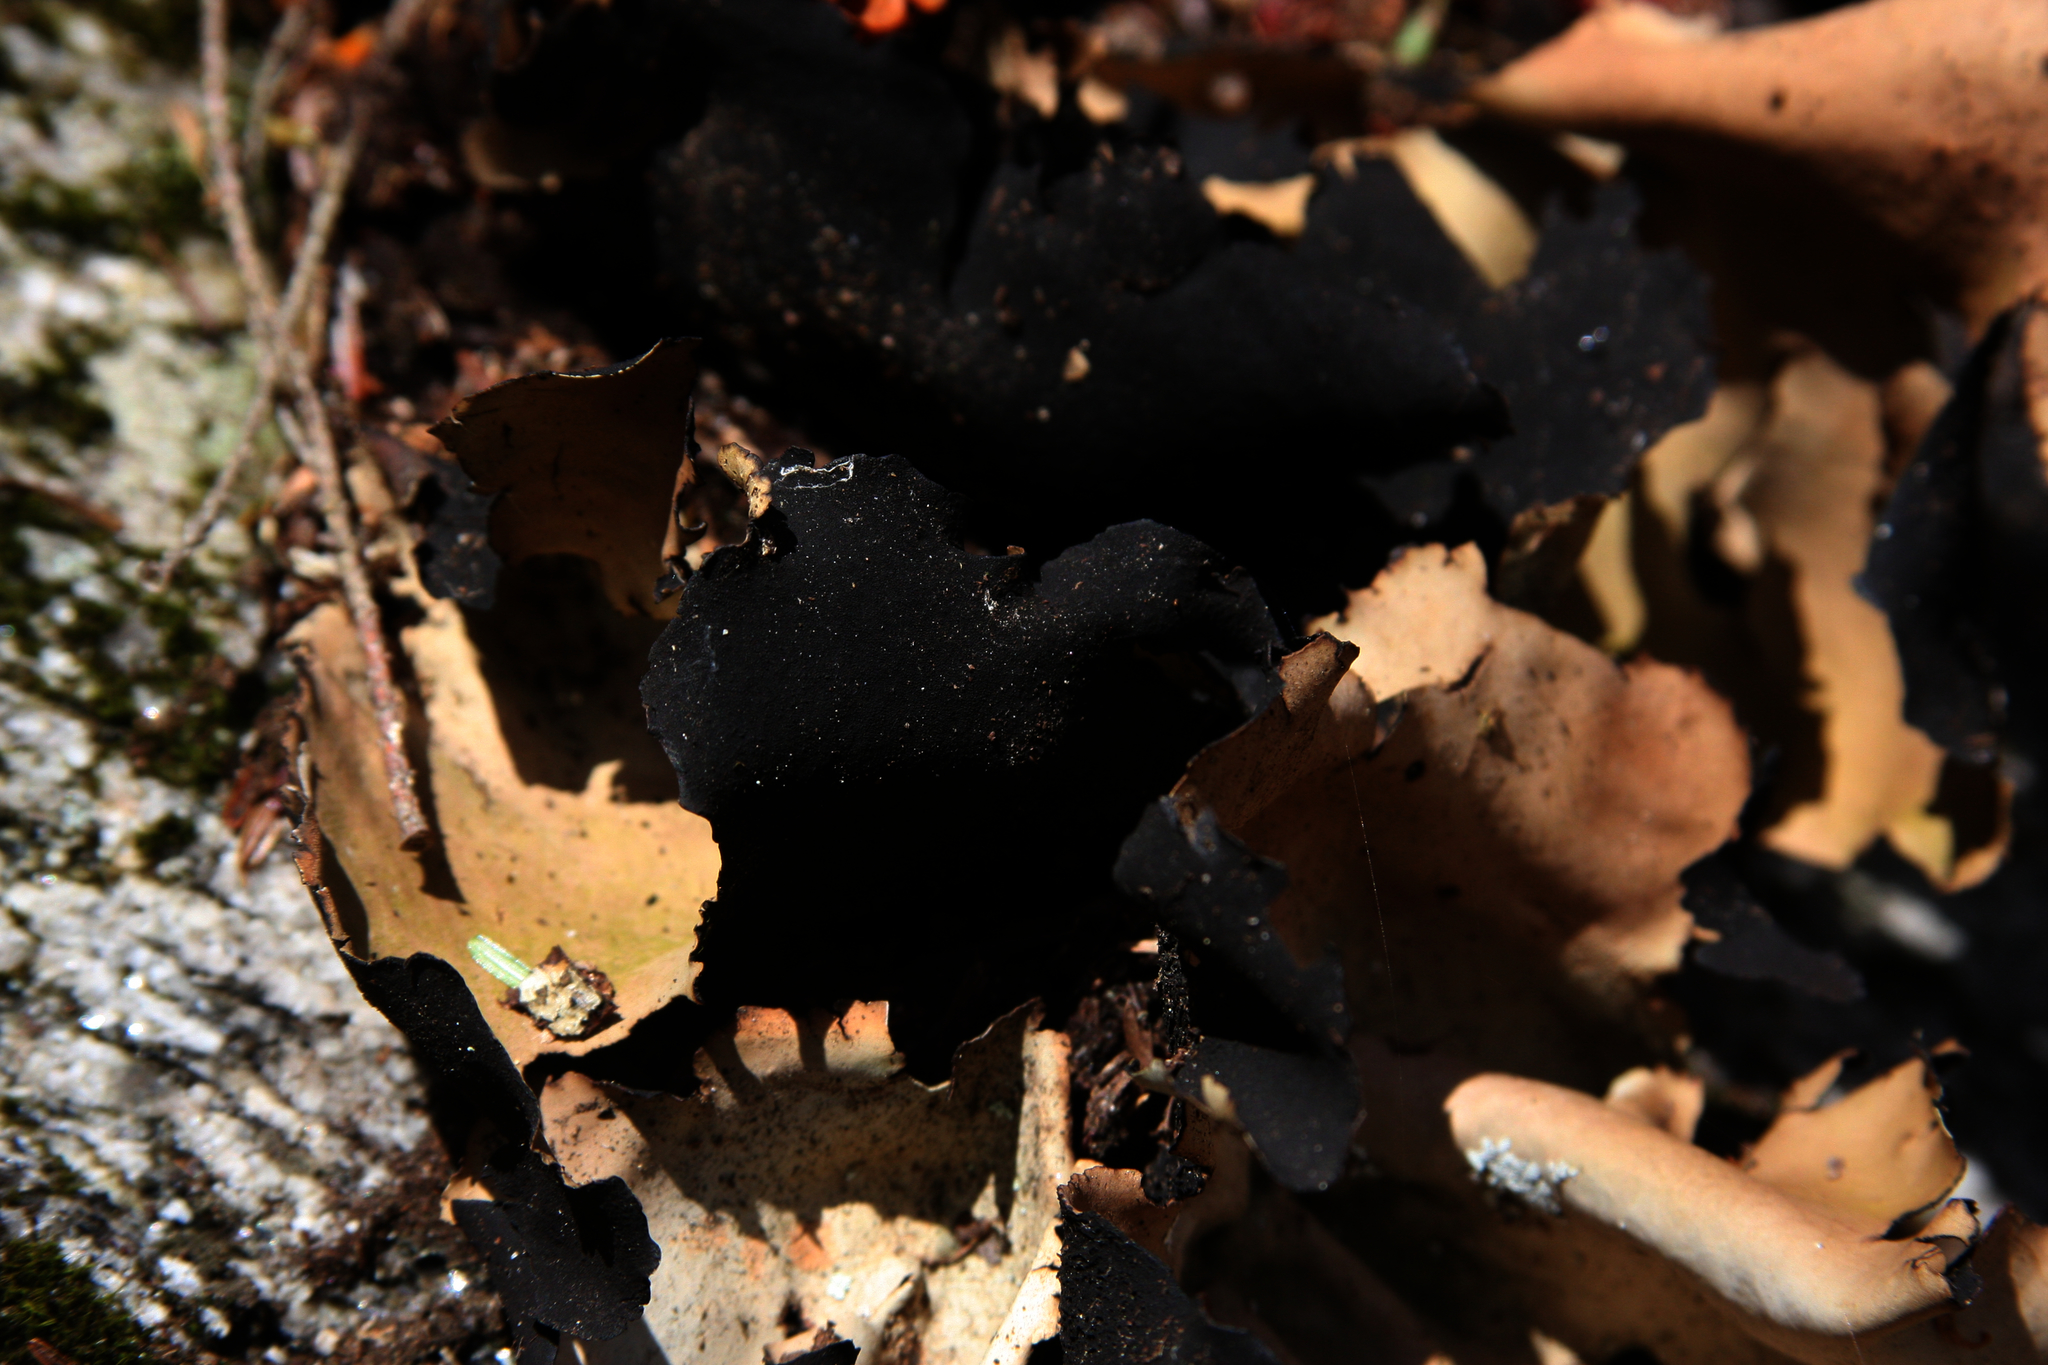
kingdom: Fungi
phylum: Ascomycota
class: Lecanoromycetes
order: Umbilicariales
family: Umbilicariaceae
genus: Umbilicaria
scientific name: Umbilicaria mammulata
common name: Smooth rock tripe
